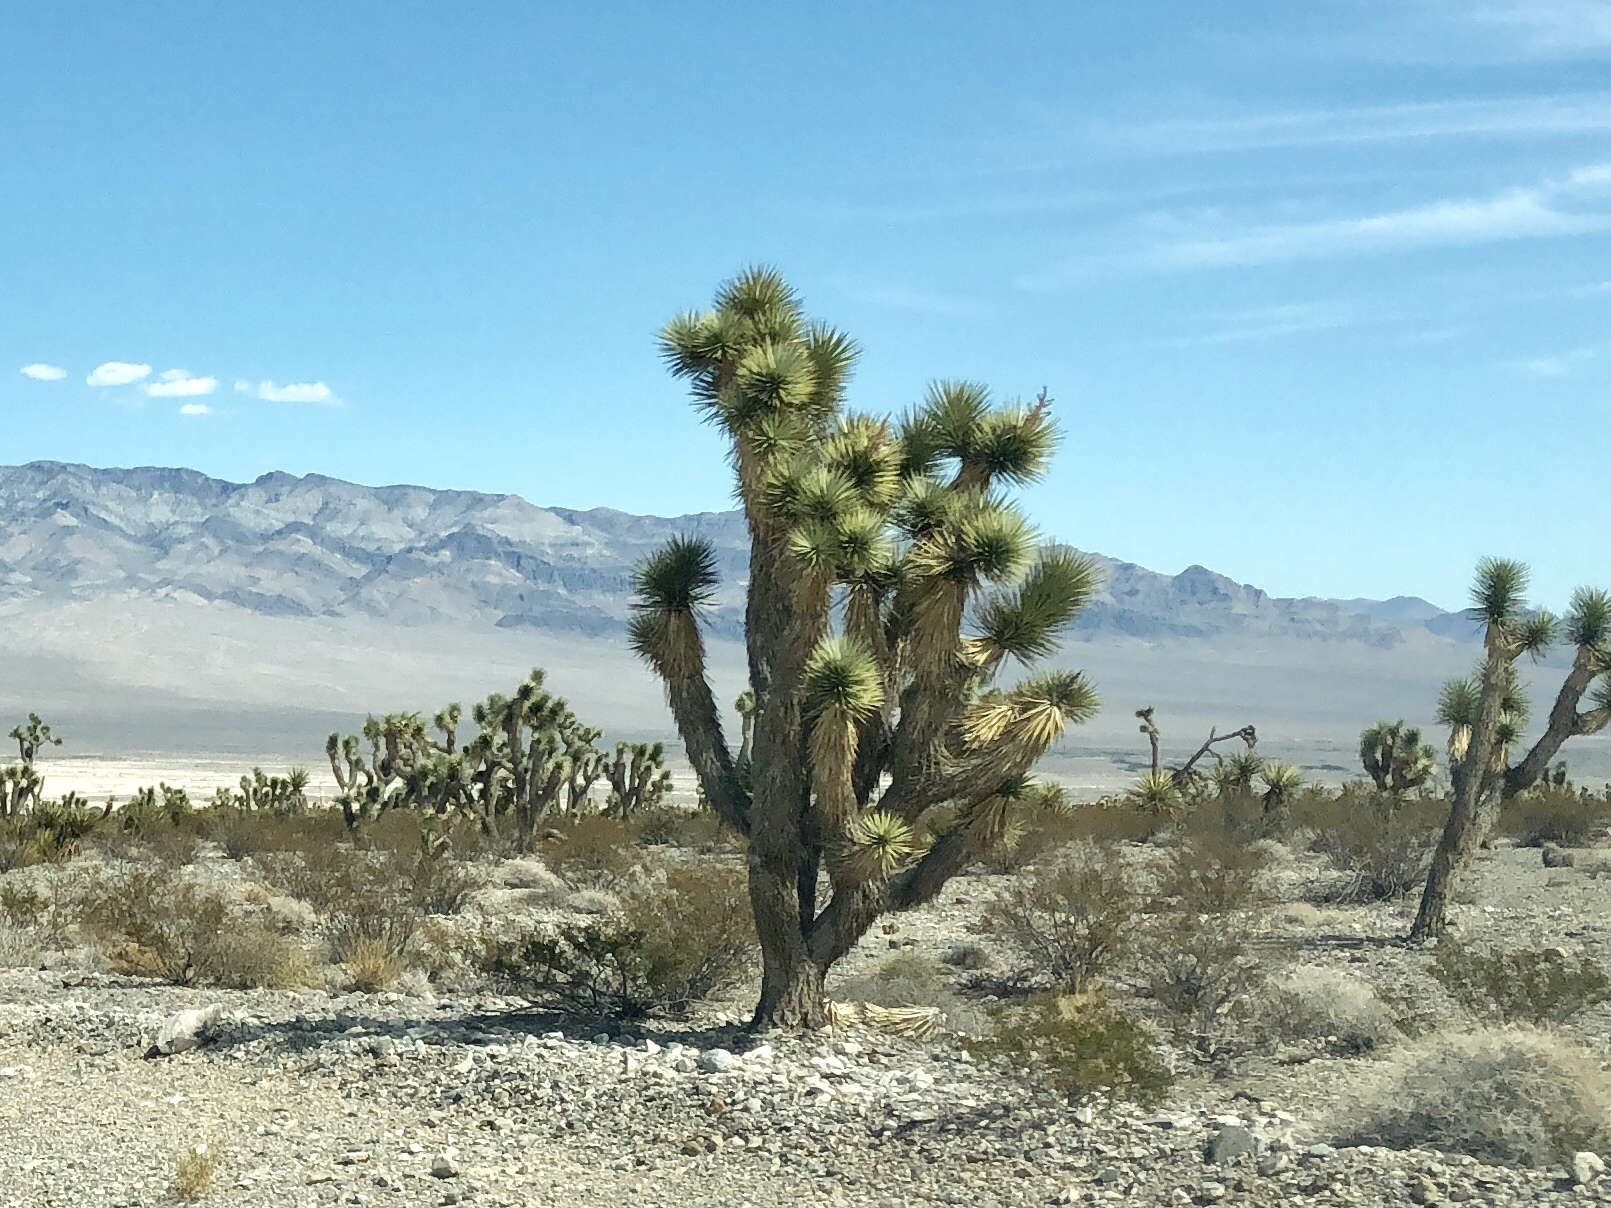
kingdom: Plantae
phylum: Tracheophyta
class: Liliopsida
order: Asparagales
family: Asparagaceae
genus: Yucca
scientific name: Yucca brevifolia
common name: Joshua tree
